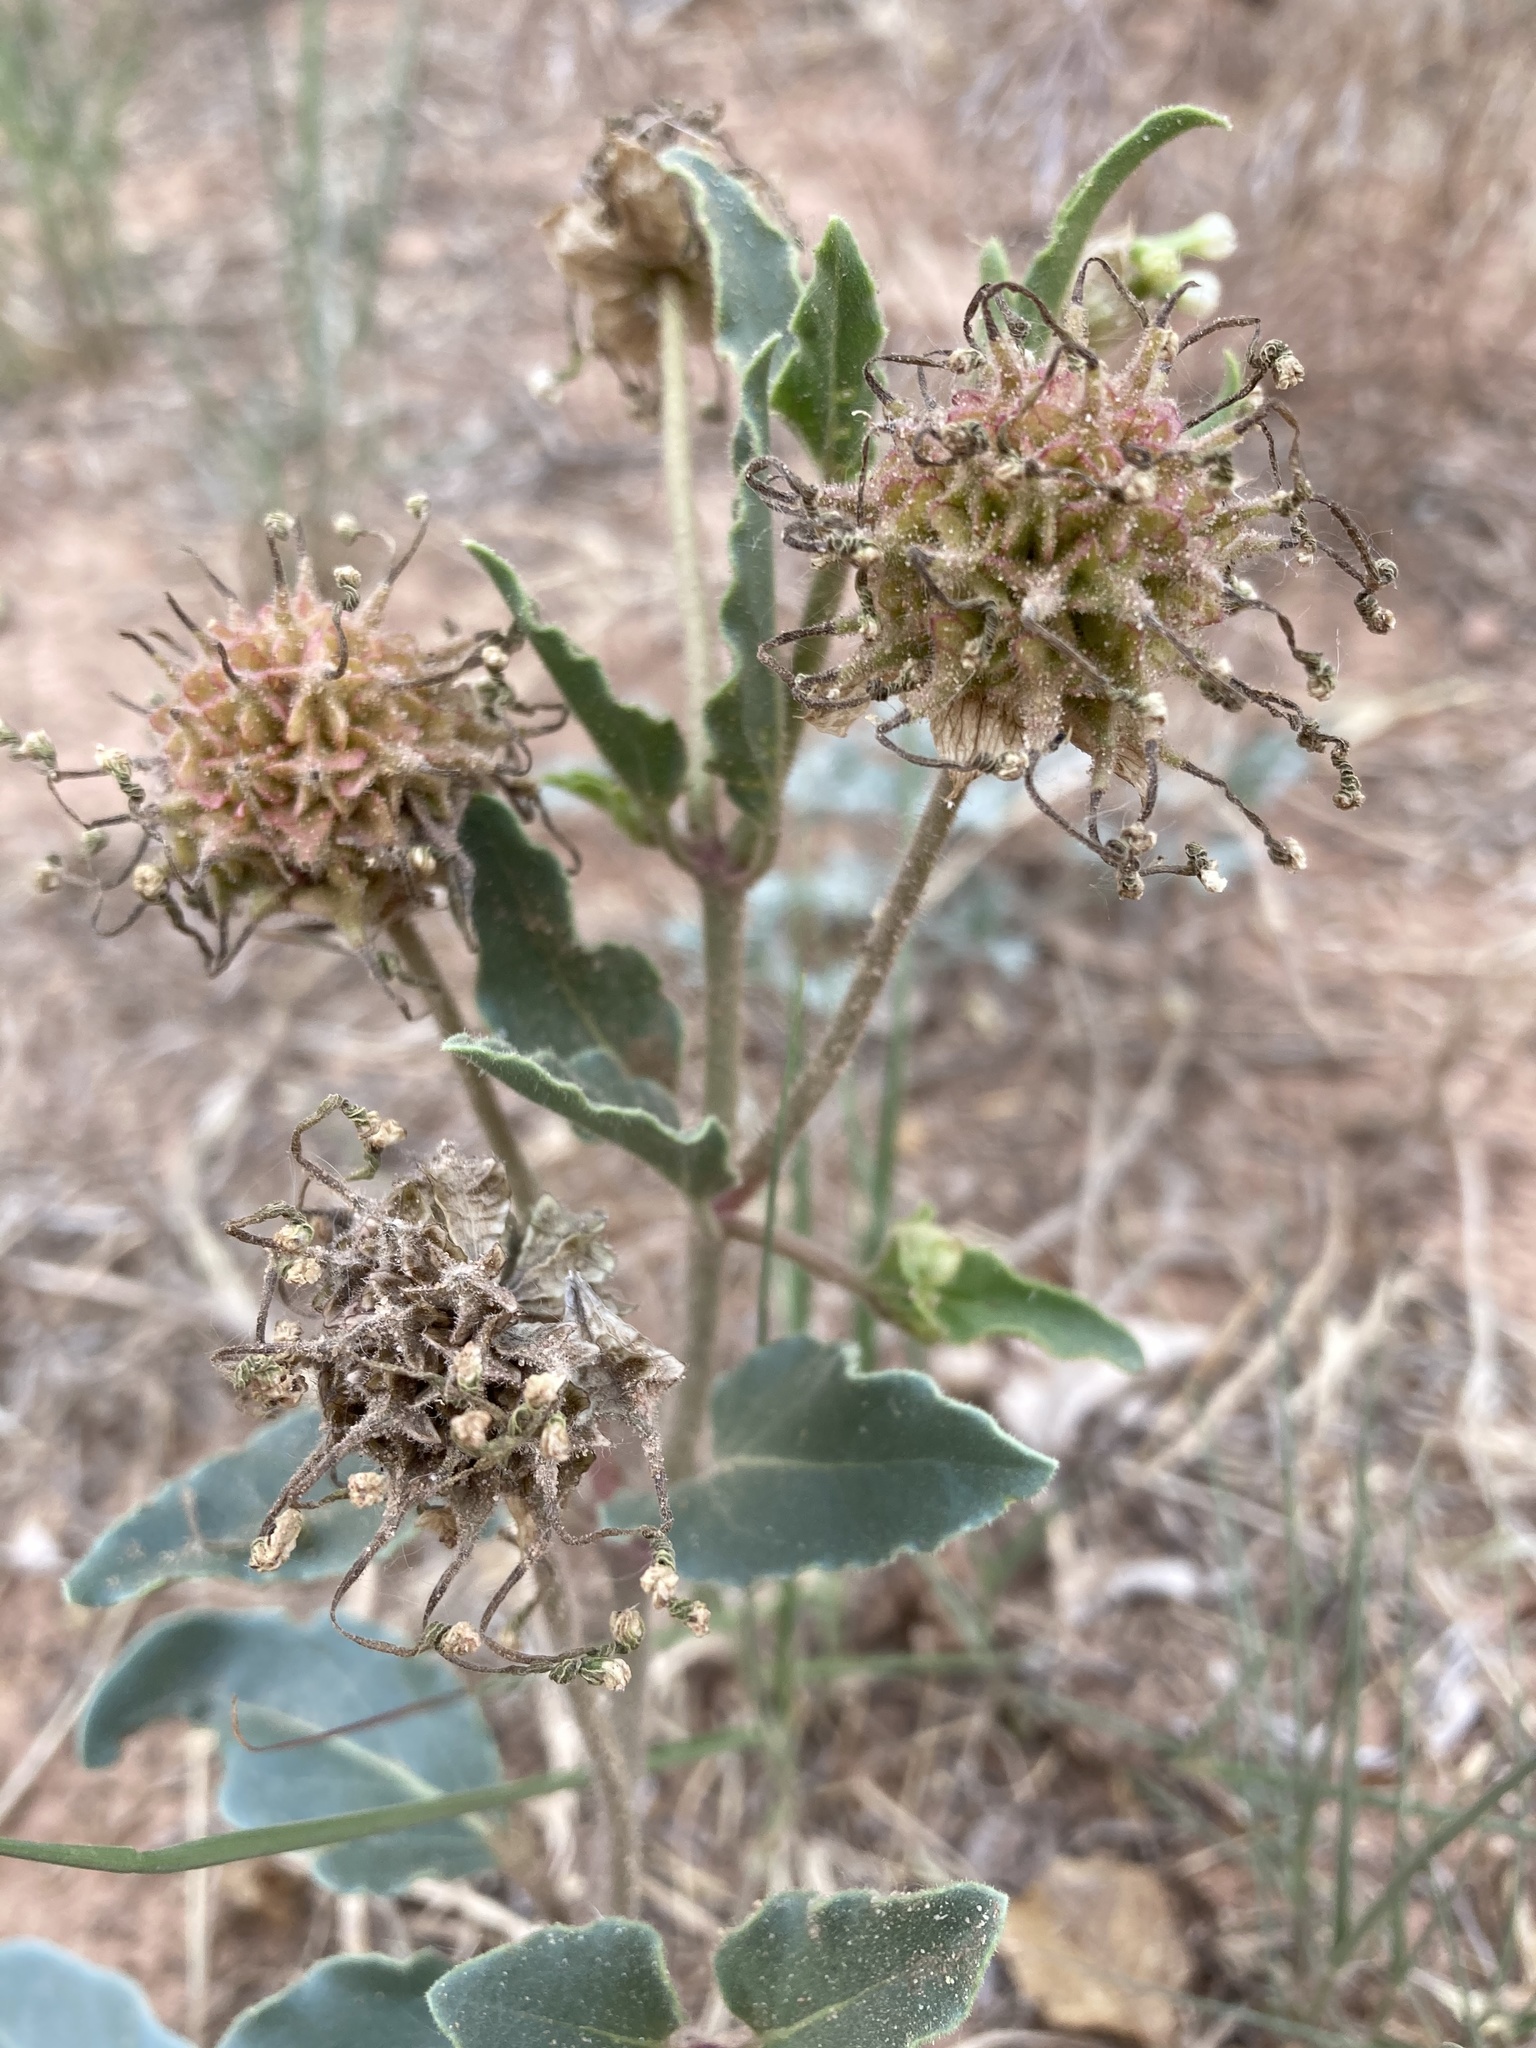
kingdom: Plantae
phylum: Tracheophyta
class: Magnoliopsida
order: Caryophyllales
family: Nyctaginaceae
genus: Abronia
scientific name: Abronia fragrans
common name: Fragrant sand-verbena
